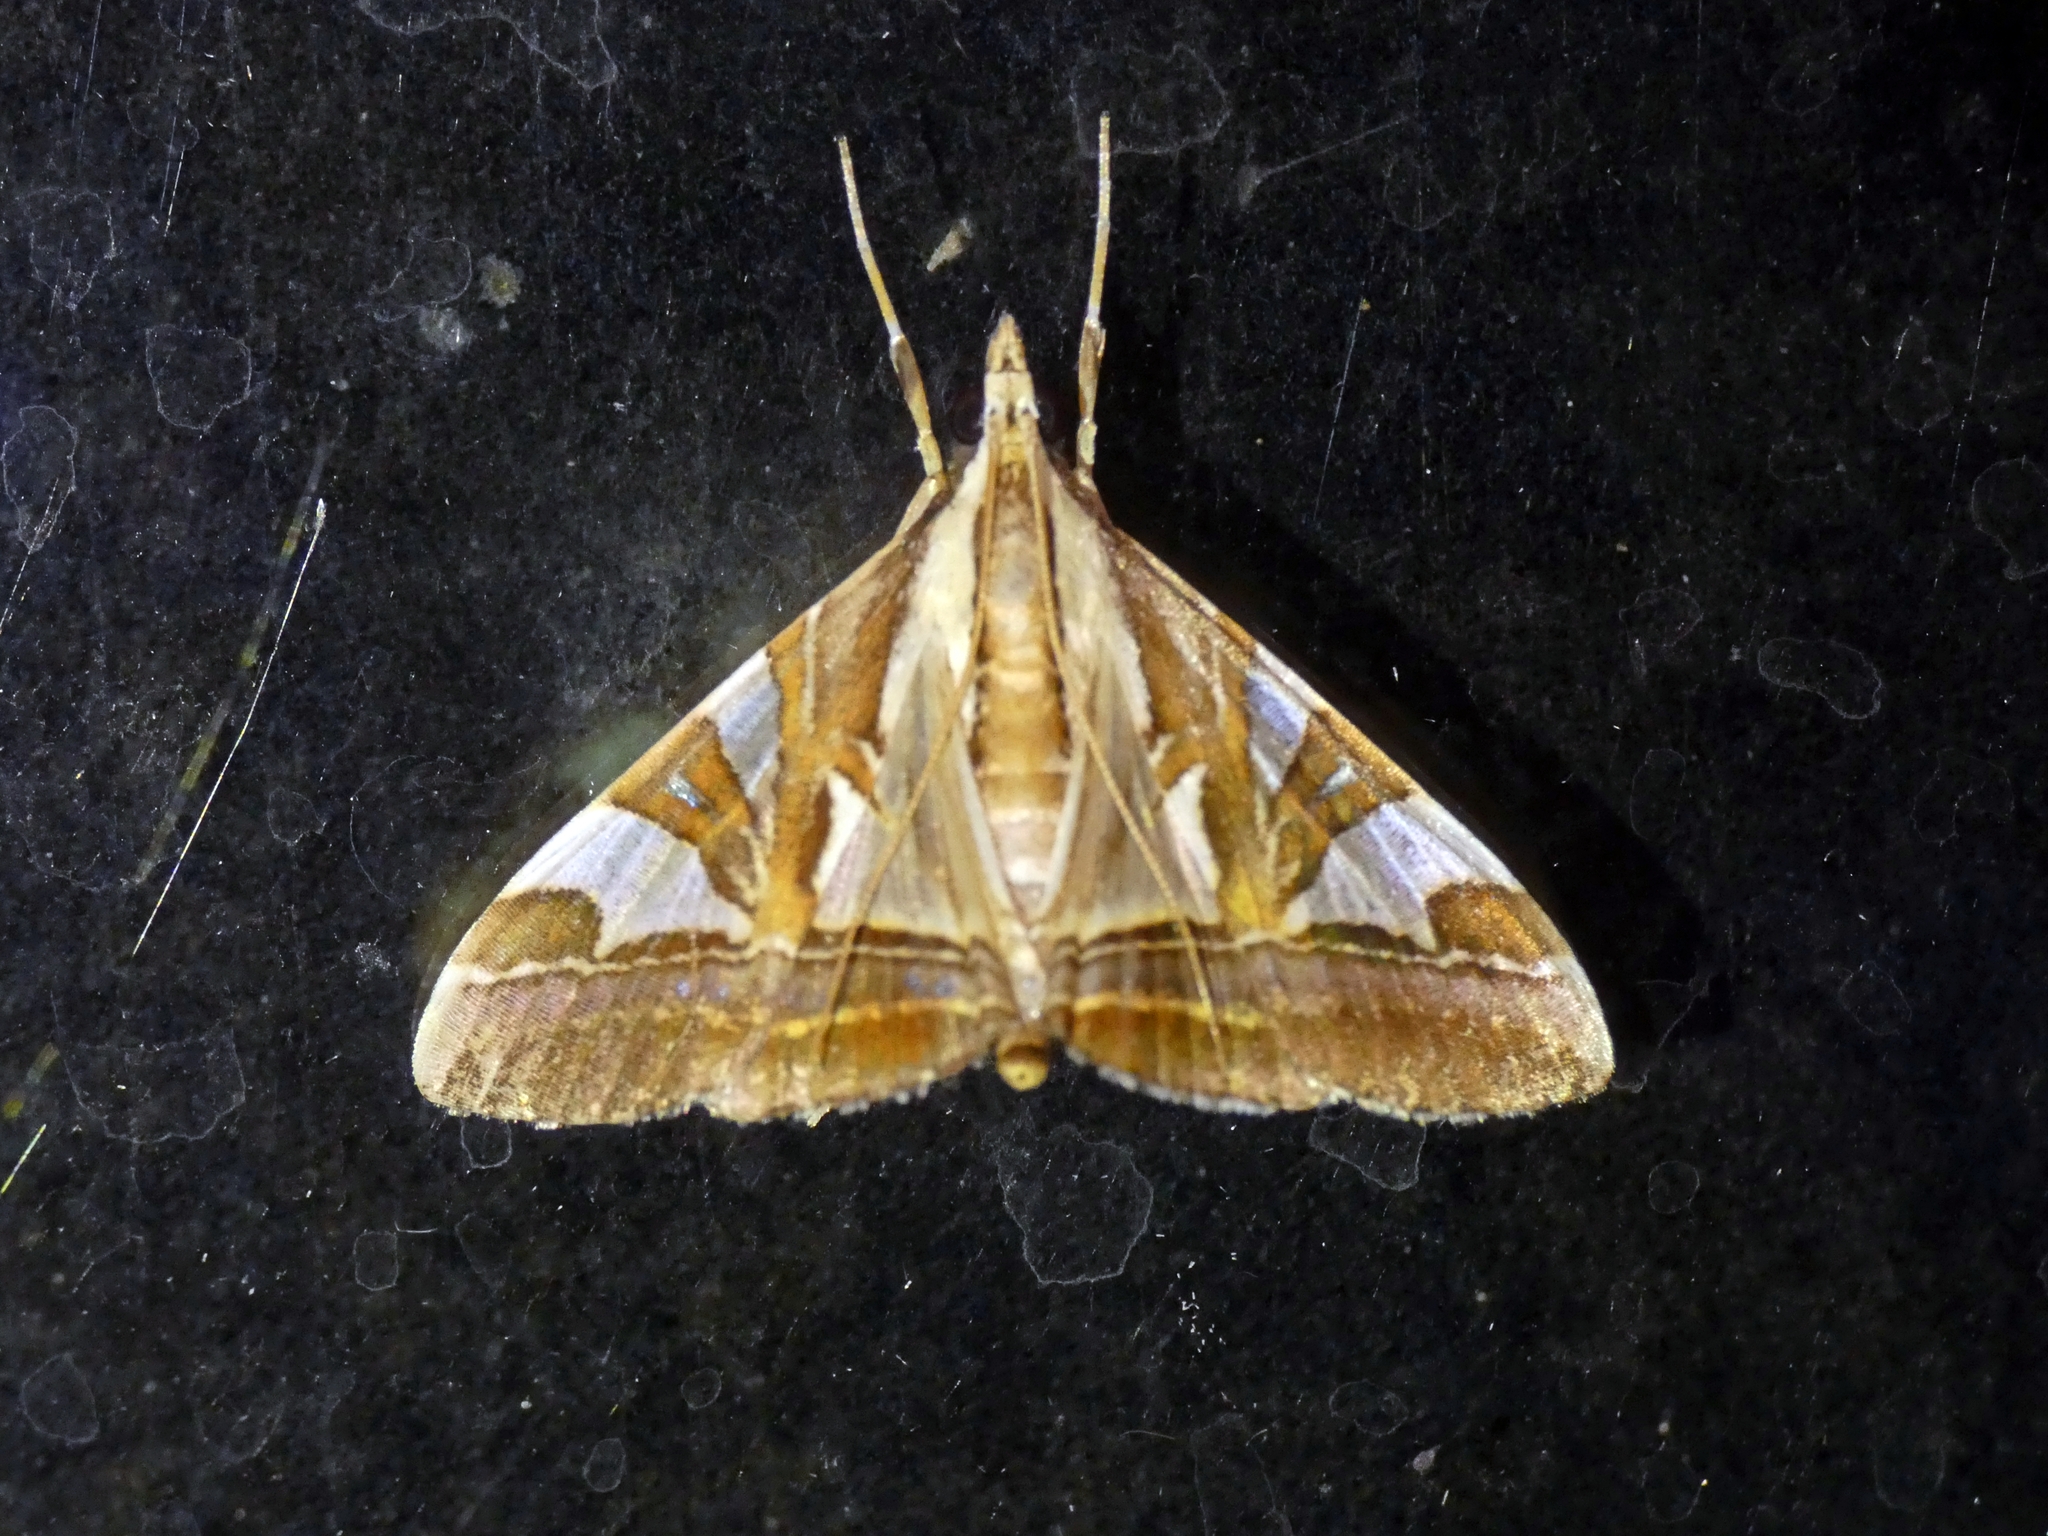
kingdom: Animalia
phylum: Arthropoda
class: Insecta
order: Lepidoptera
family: Crambidae
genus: Agrioglypta
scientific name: Agrioglypta itysalis
